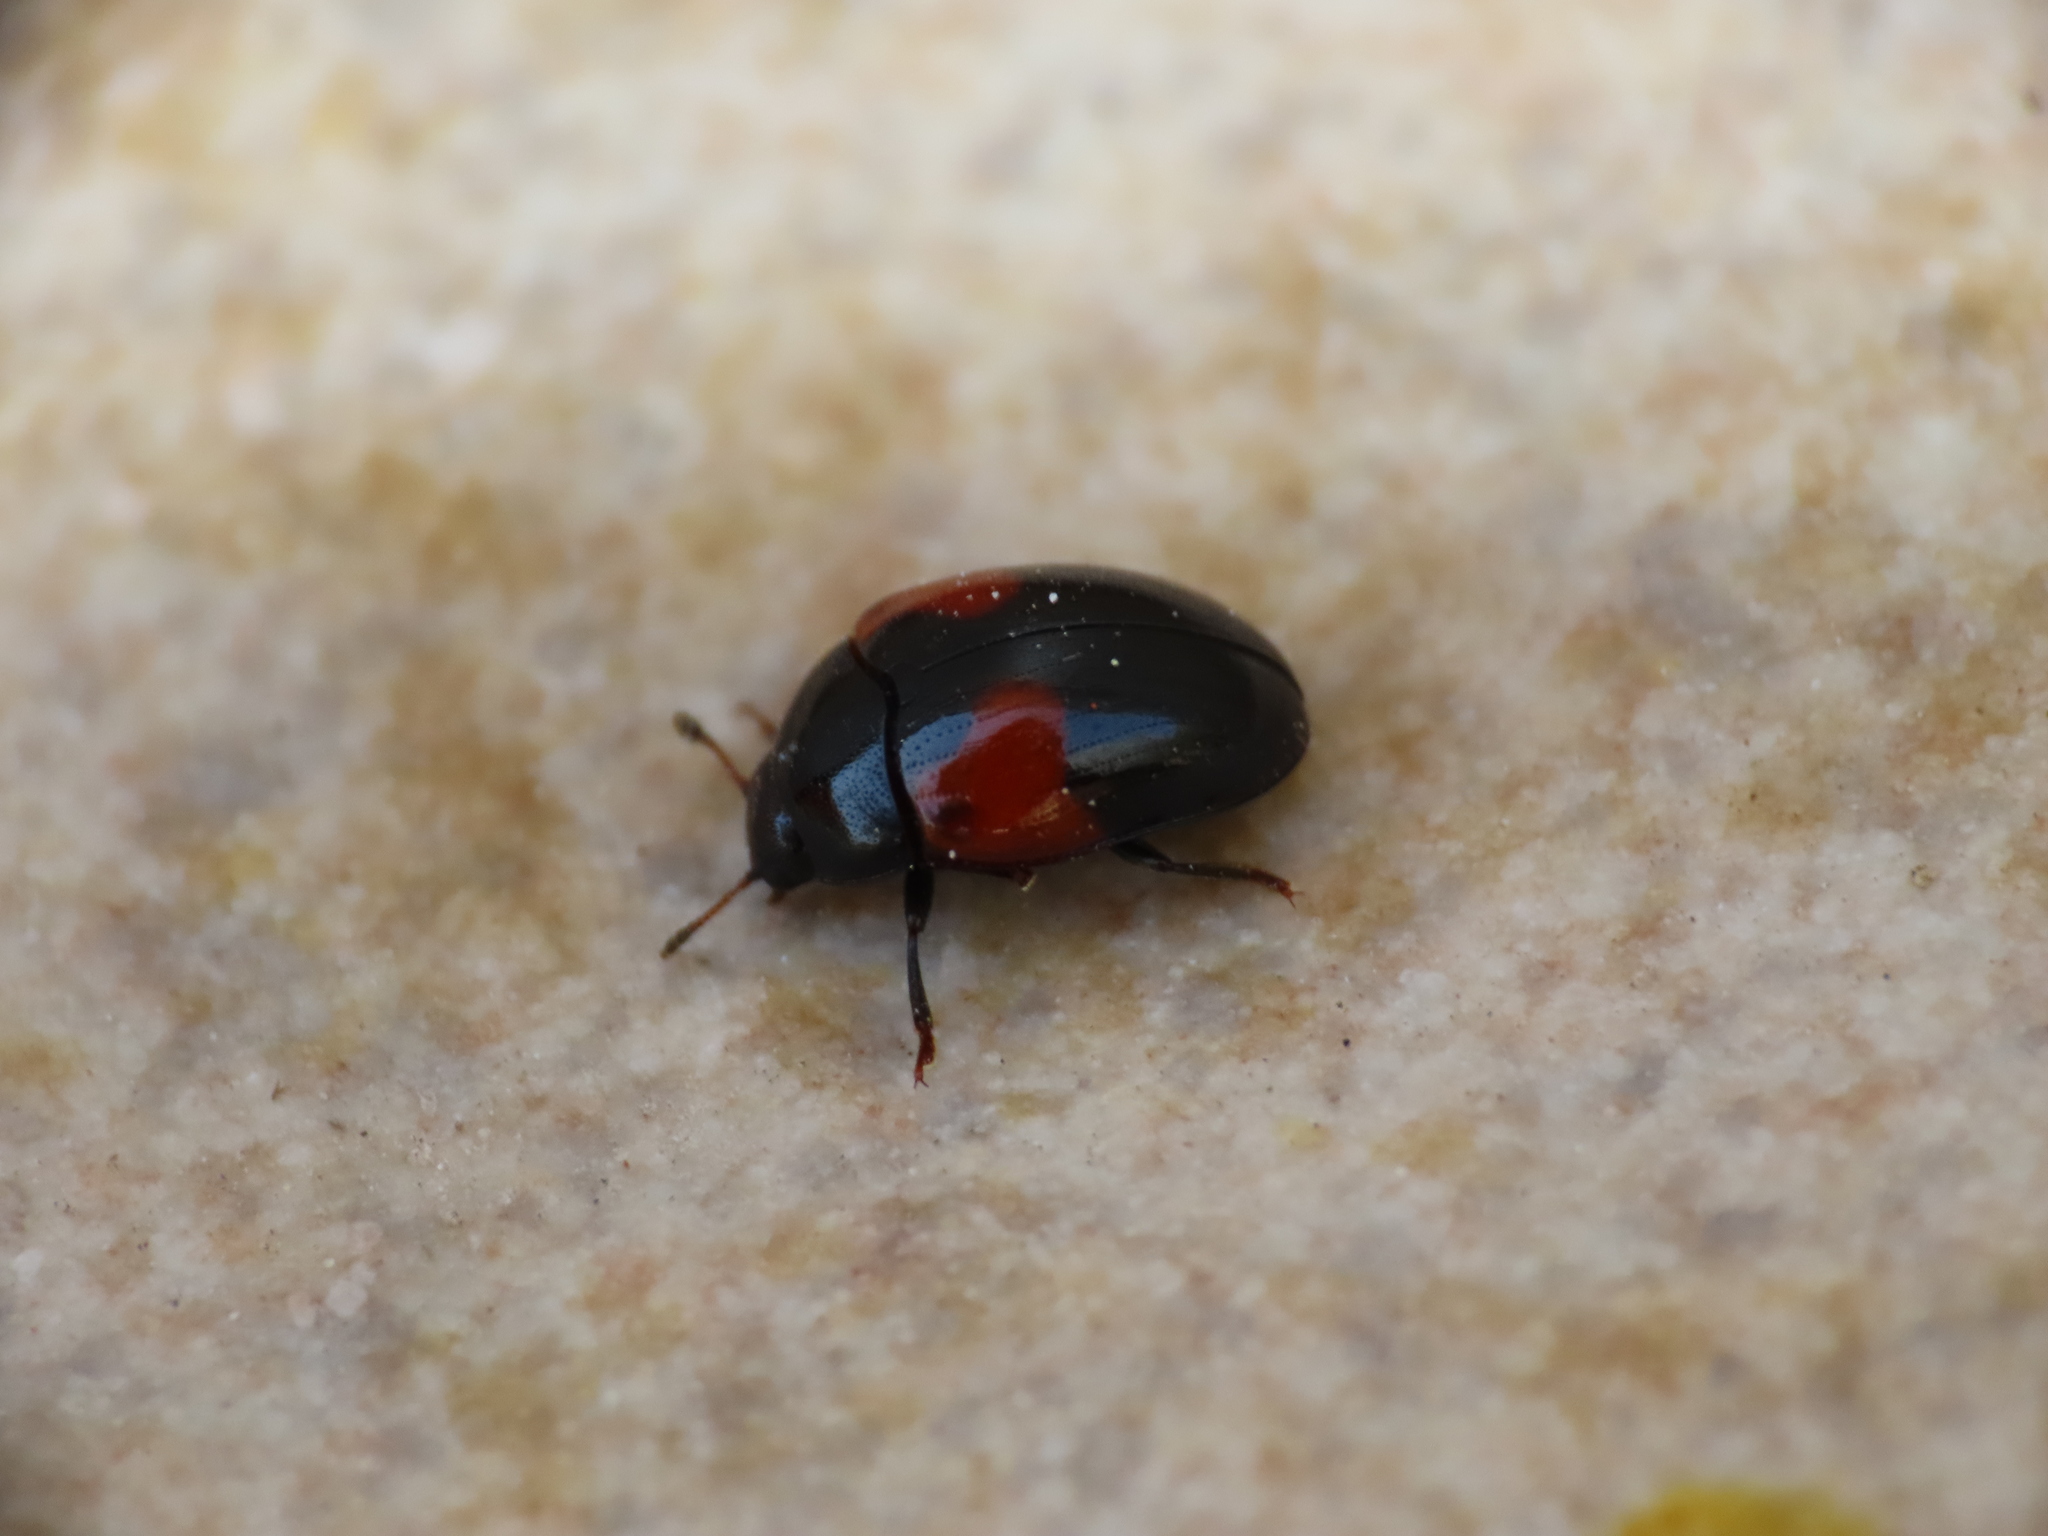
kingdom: Animalia
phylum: Arthropoda
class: Insecta
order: Coleoptera
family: Erotylidae
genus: Tritoma
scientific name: Tritoma bipustulata
